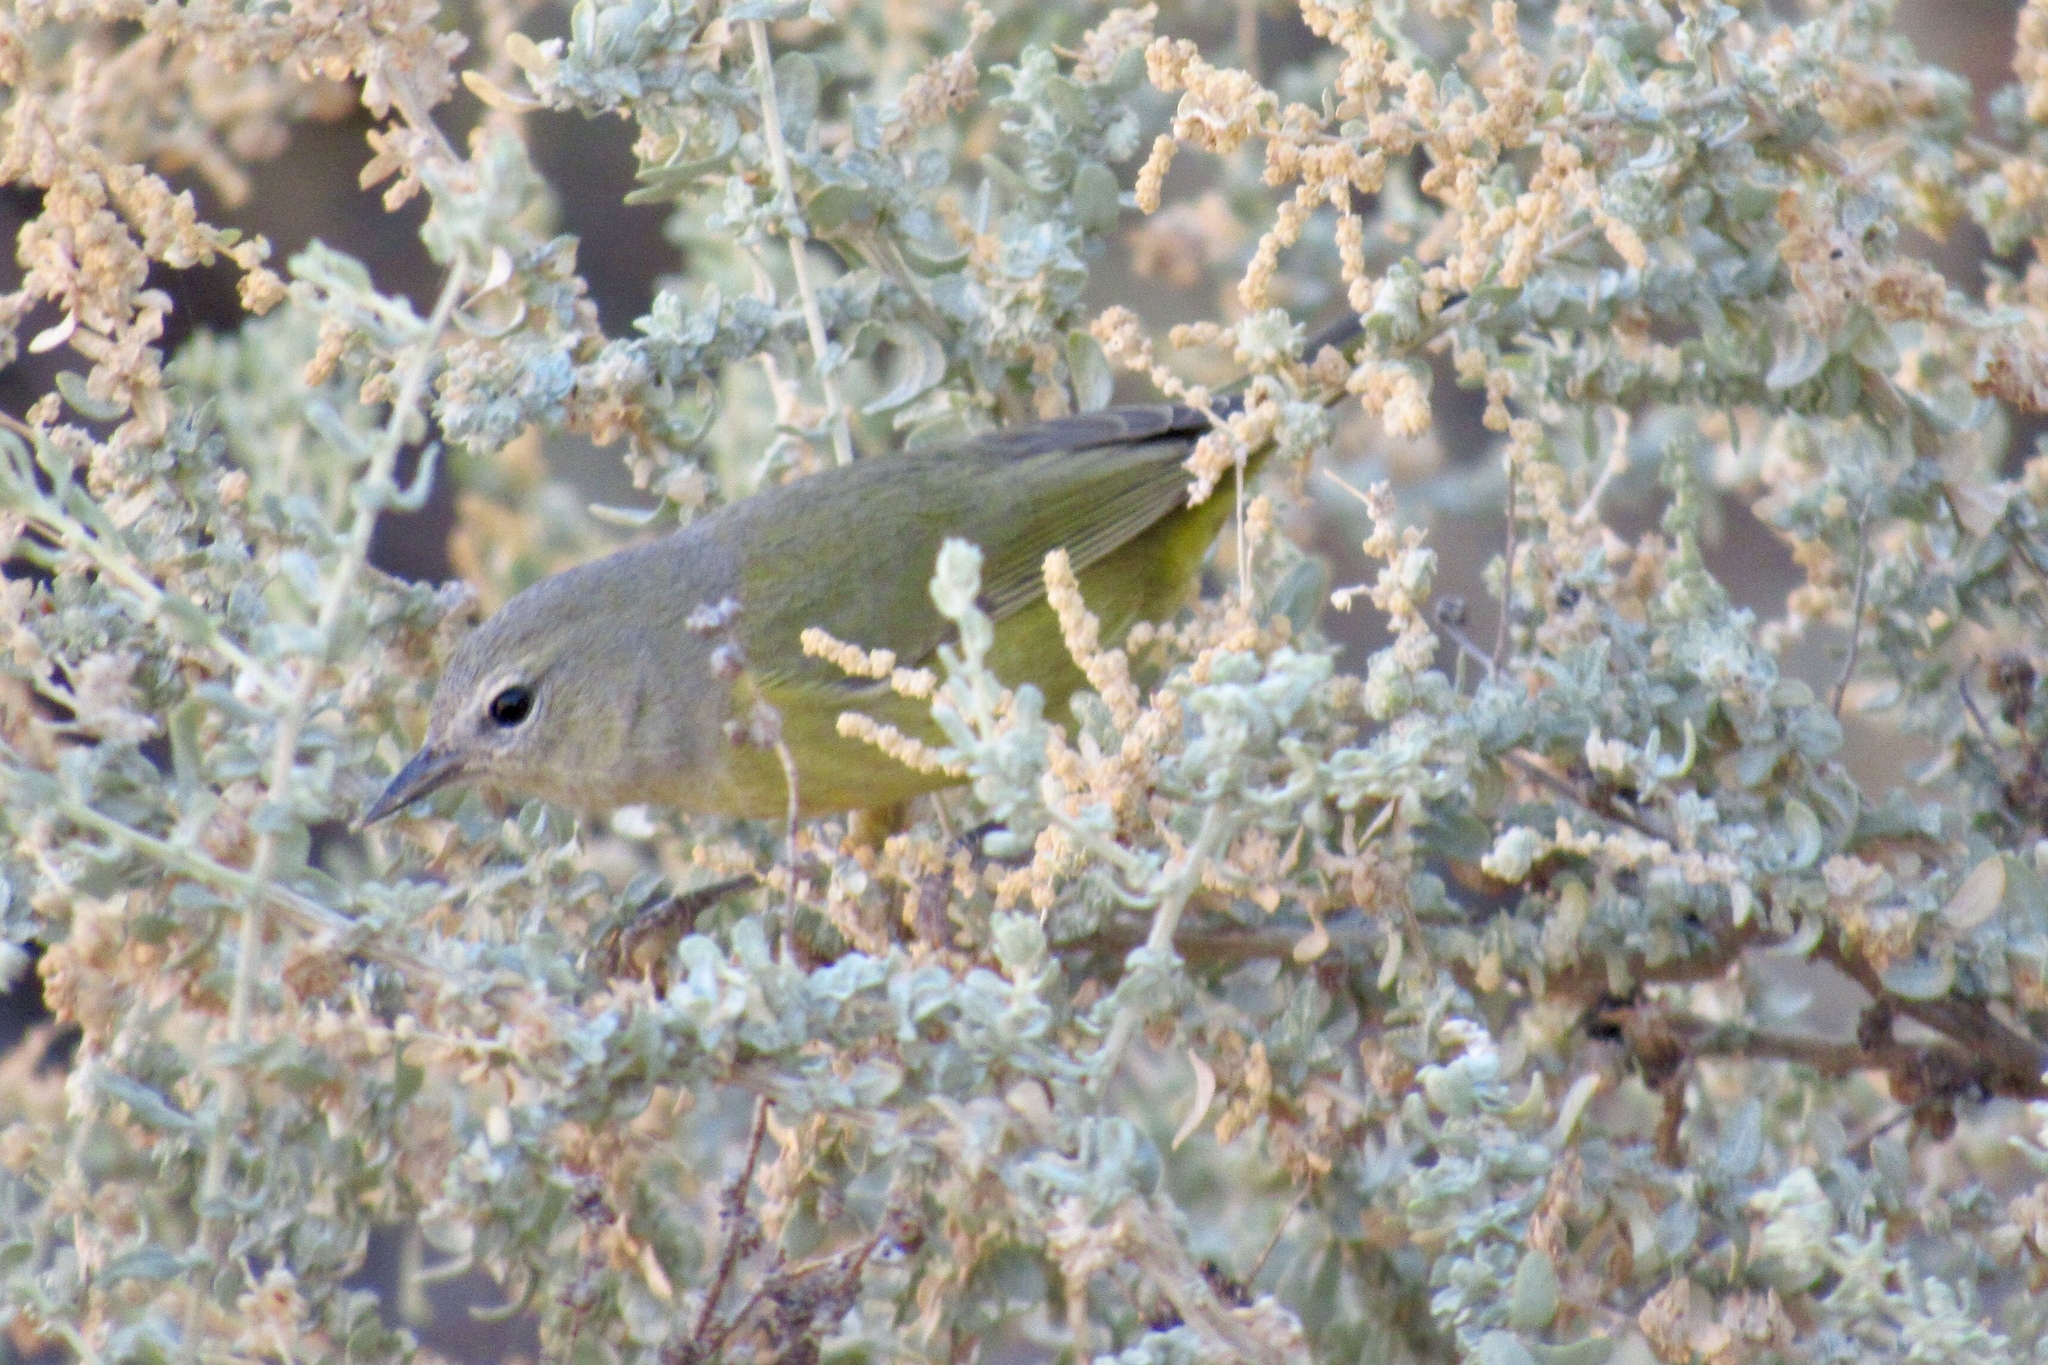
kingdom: Animalia
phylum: Chordata
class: Aves
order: Passeriformes
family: Parulidae
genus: Leiothlypis
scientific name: Leiothlypis celata
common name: Orange-crowned warbler
